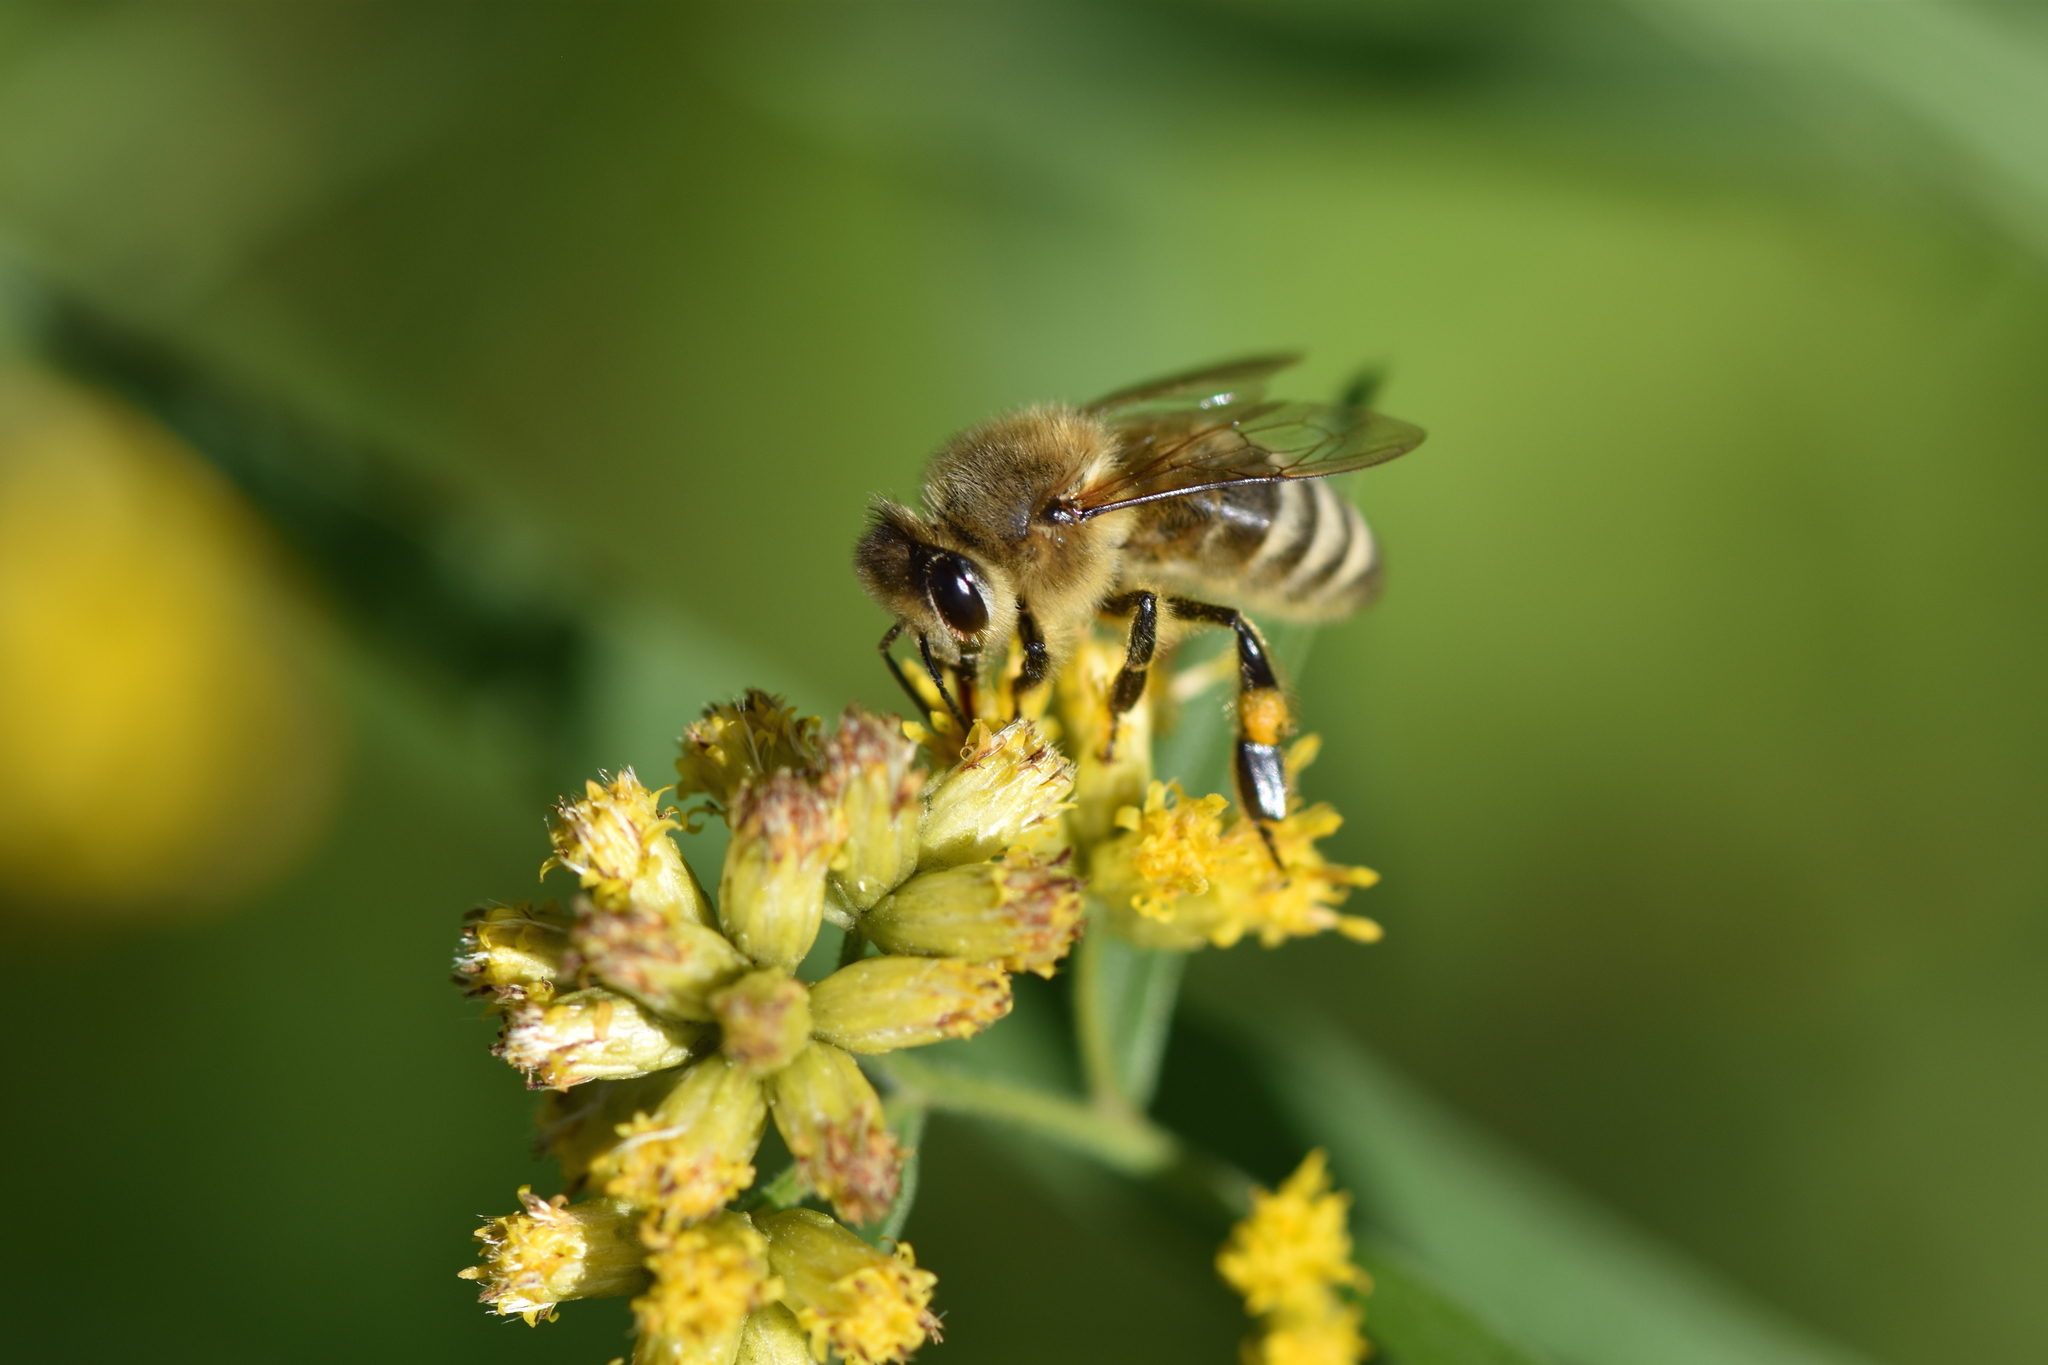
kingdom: Animalia
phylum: Arthropoda
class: Insecta
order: Hymenoptera
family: Apidae
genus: Apis
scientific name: Apis mellifera
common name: Honey bee
